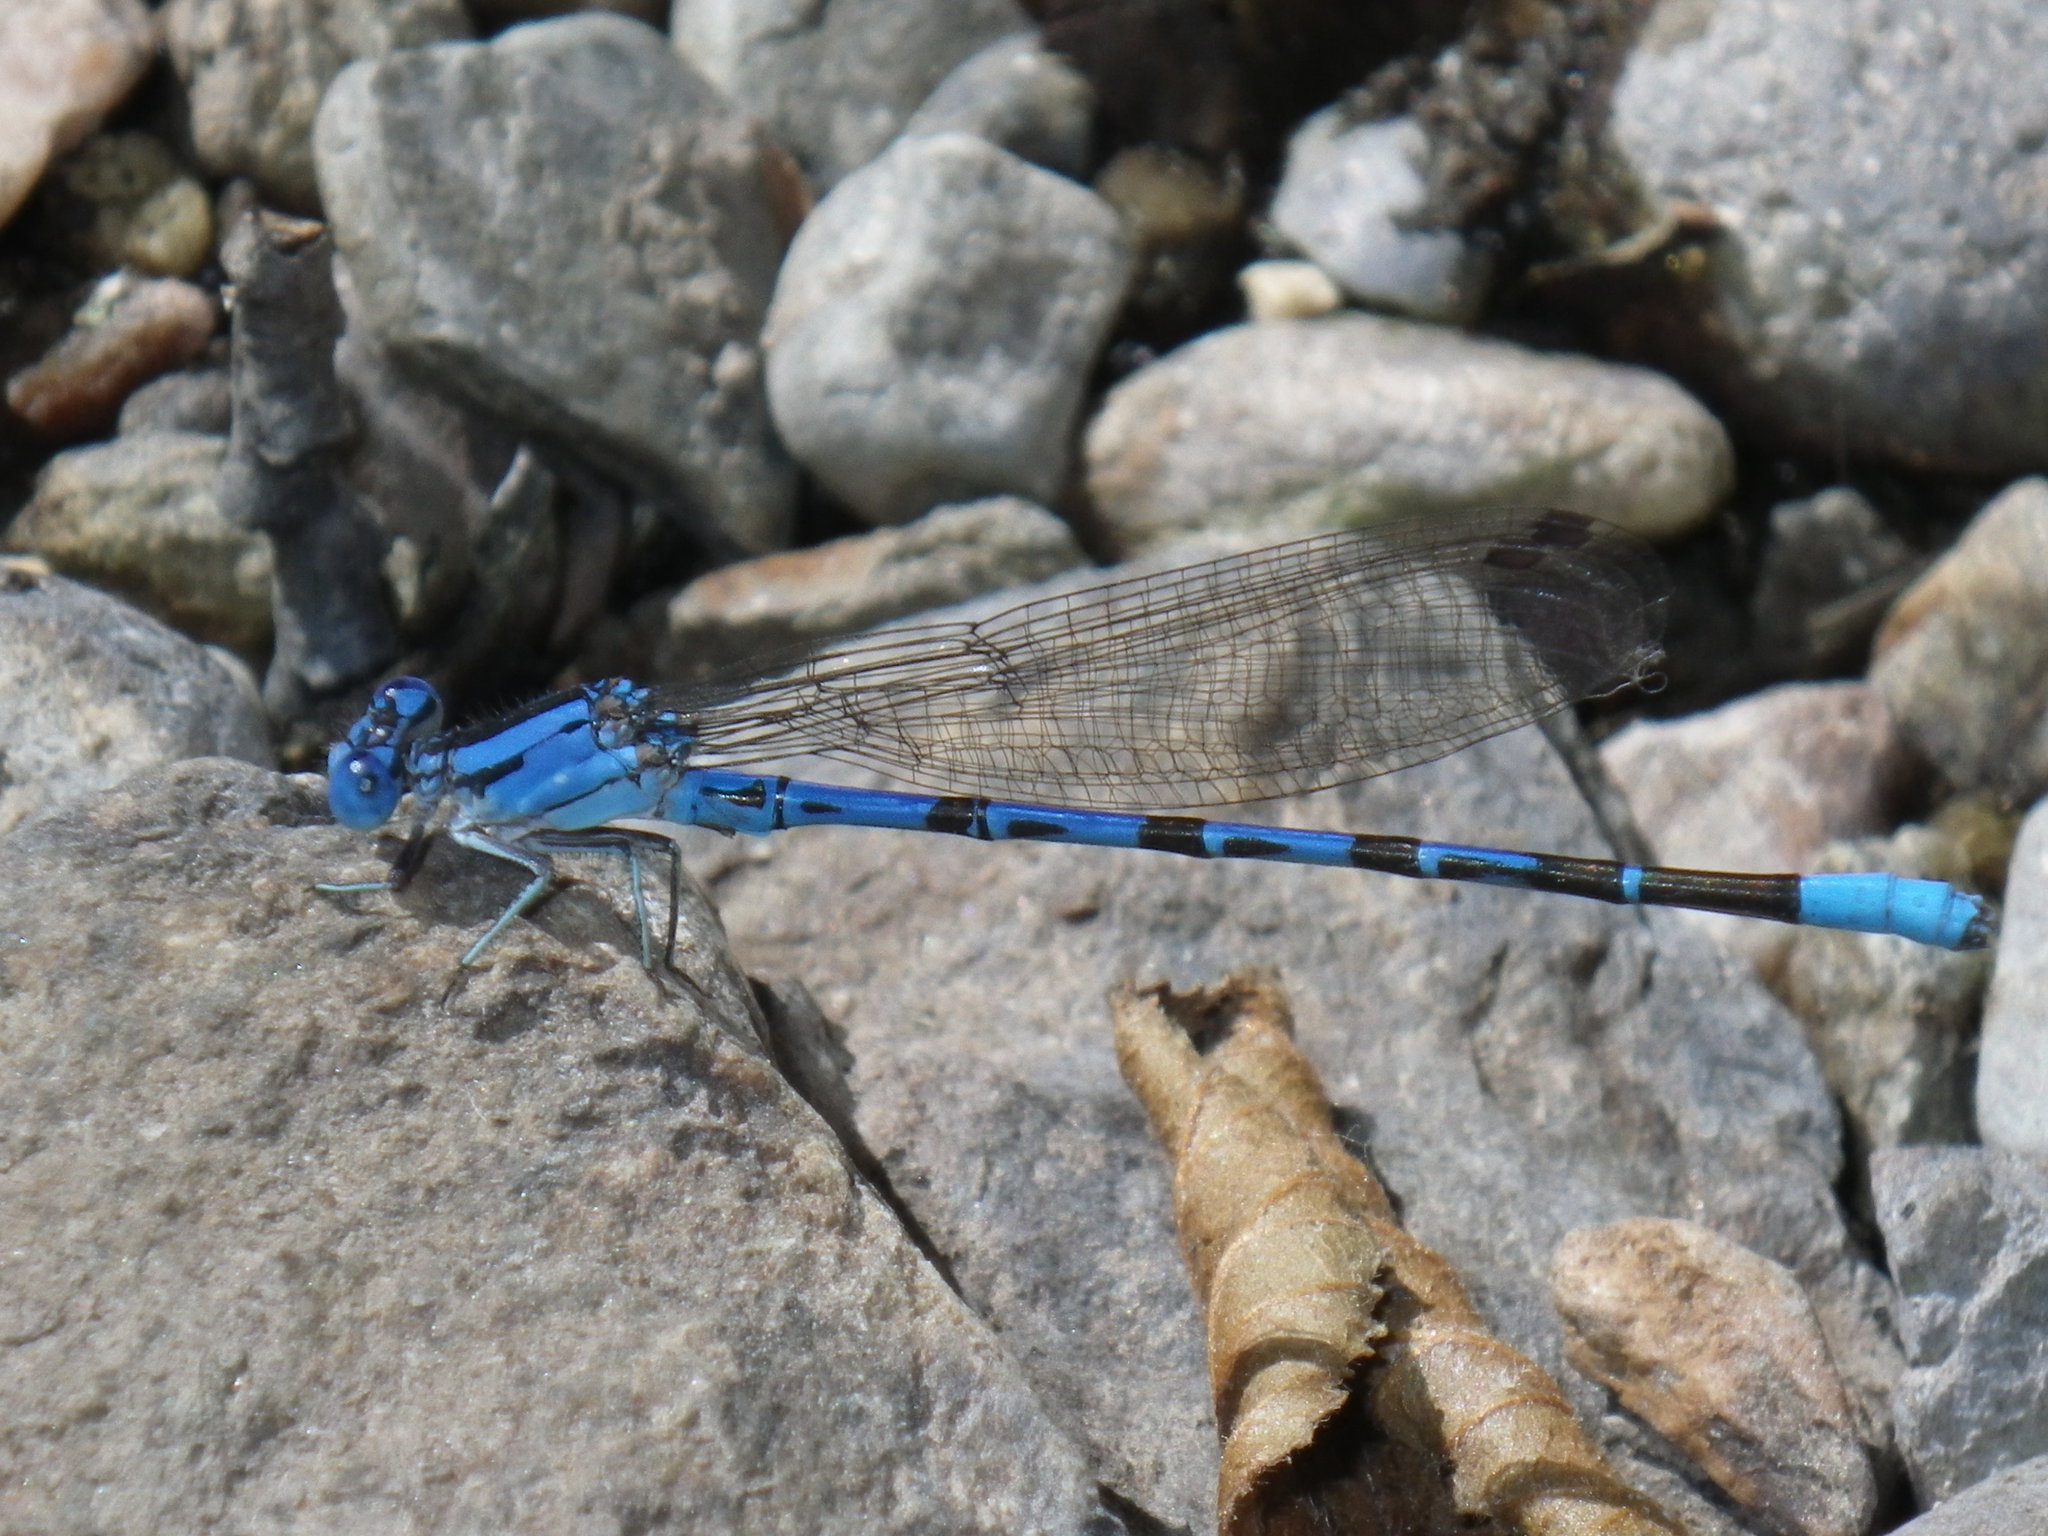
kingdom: Animalia
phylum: Arthropoda
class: Insecta
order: Odonata
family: Coenagrionidae
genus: Argia
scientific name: Argia vivida
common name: Vivid dancer
